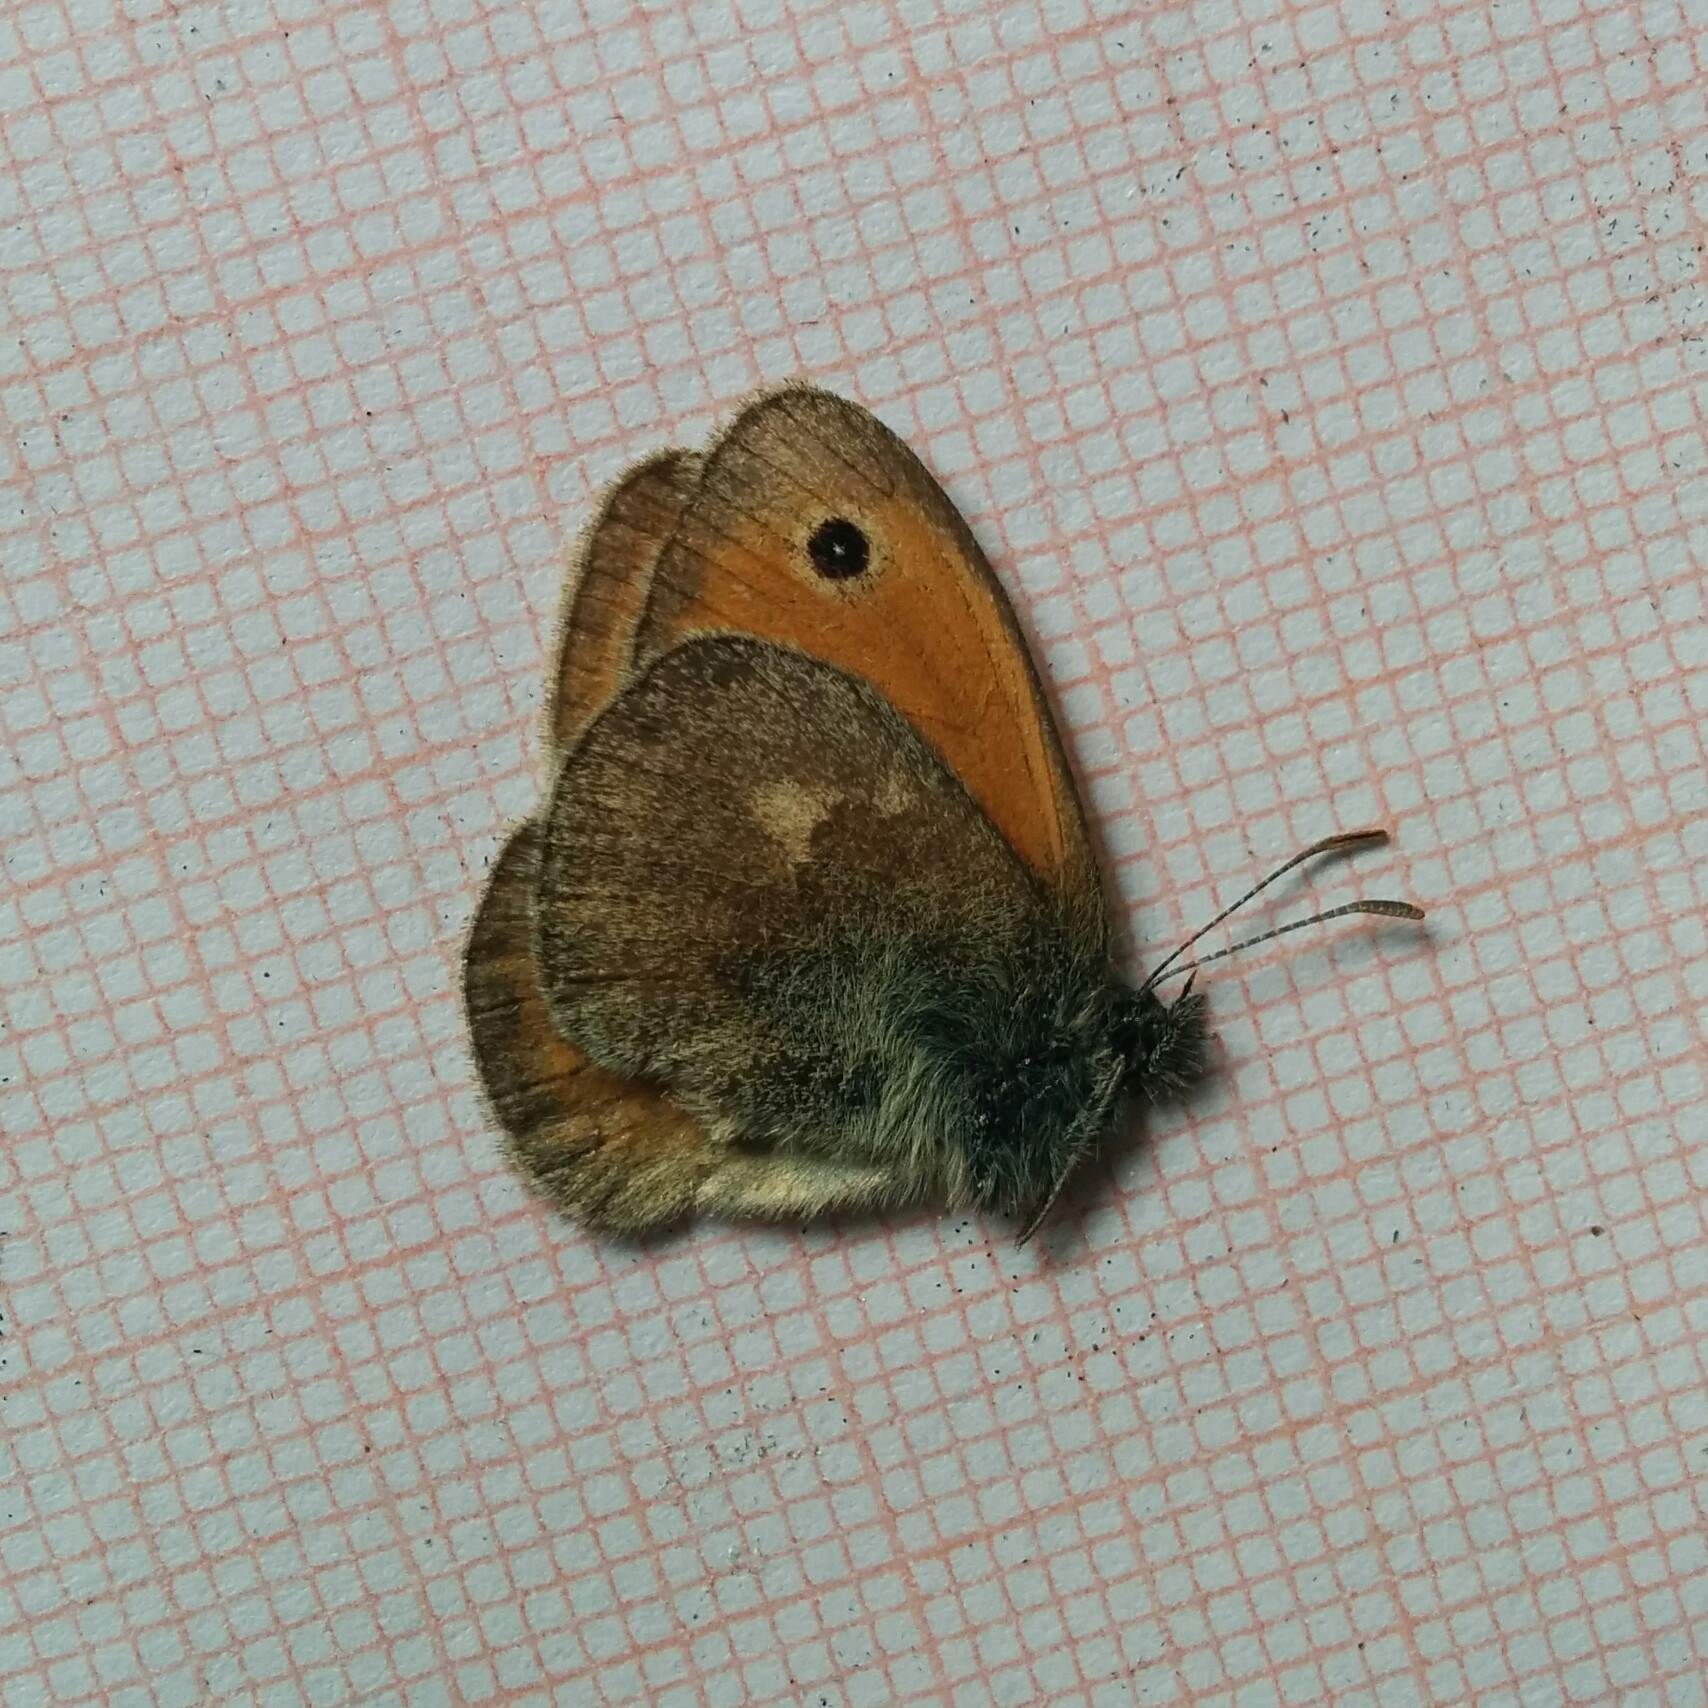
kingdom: Animalia
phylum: Arthropoda
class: Insecta
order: Lepidoptera
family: Nymphalidae
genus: Coenonympha
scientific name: Coenonympha pamphilus
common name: Small heath
